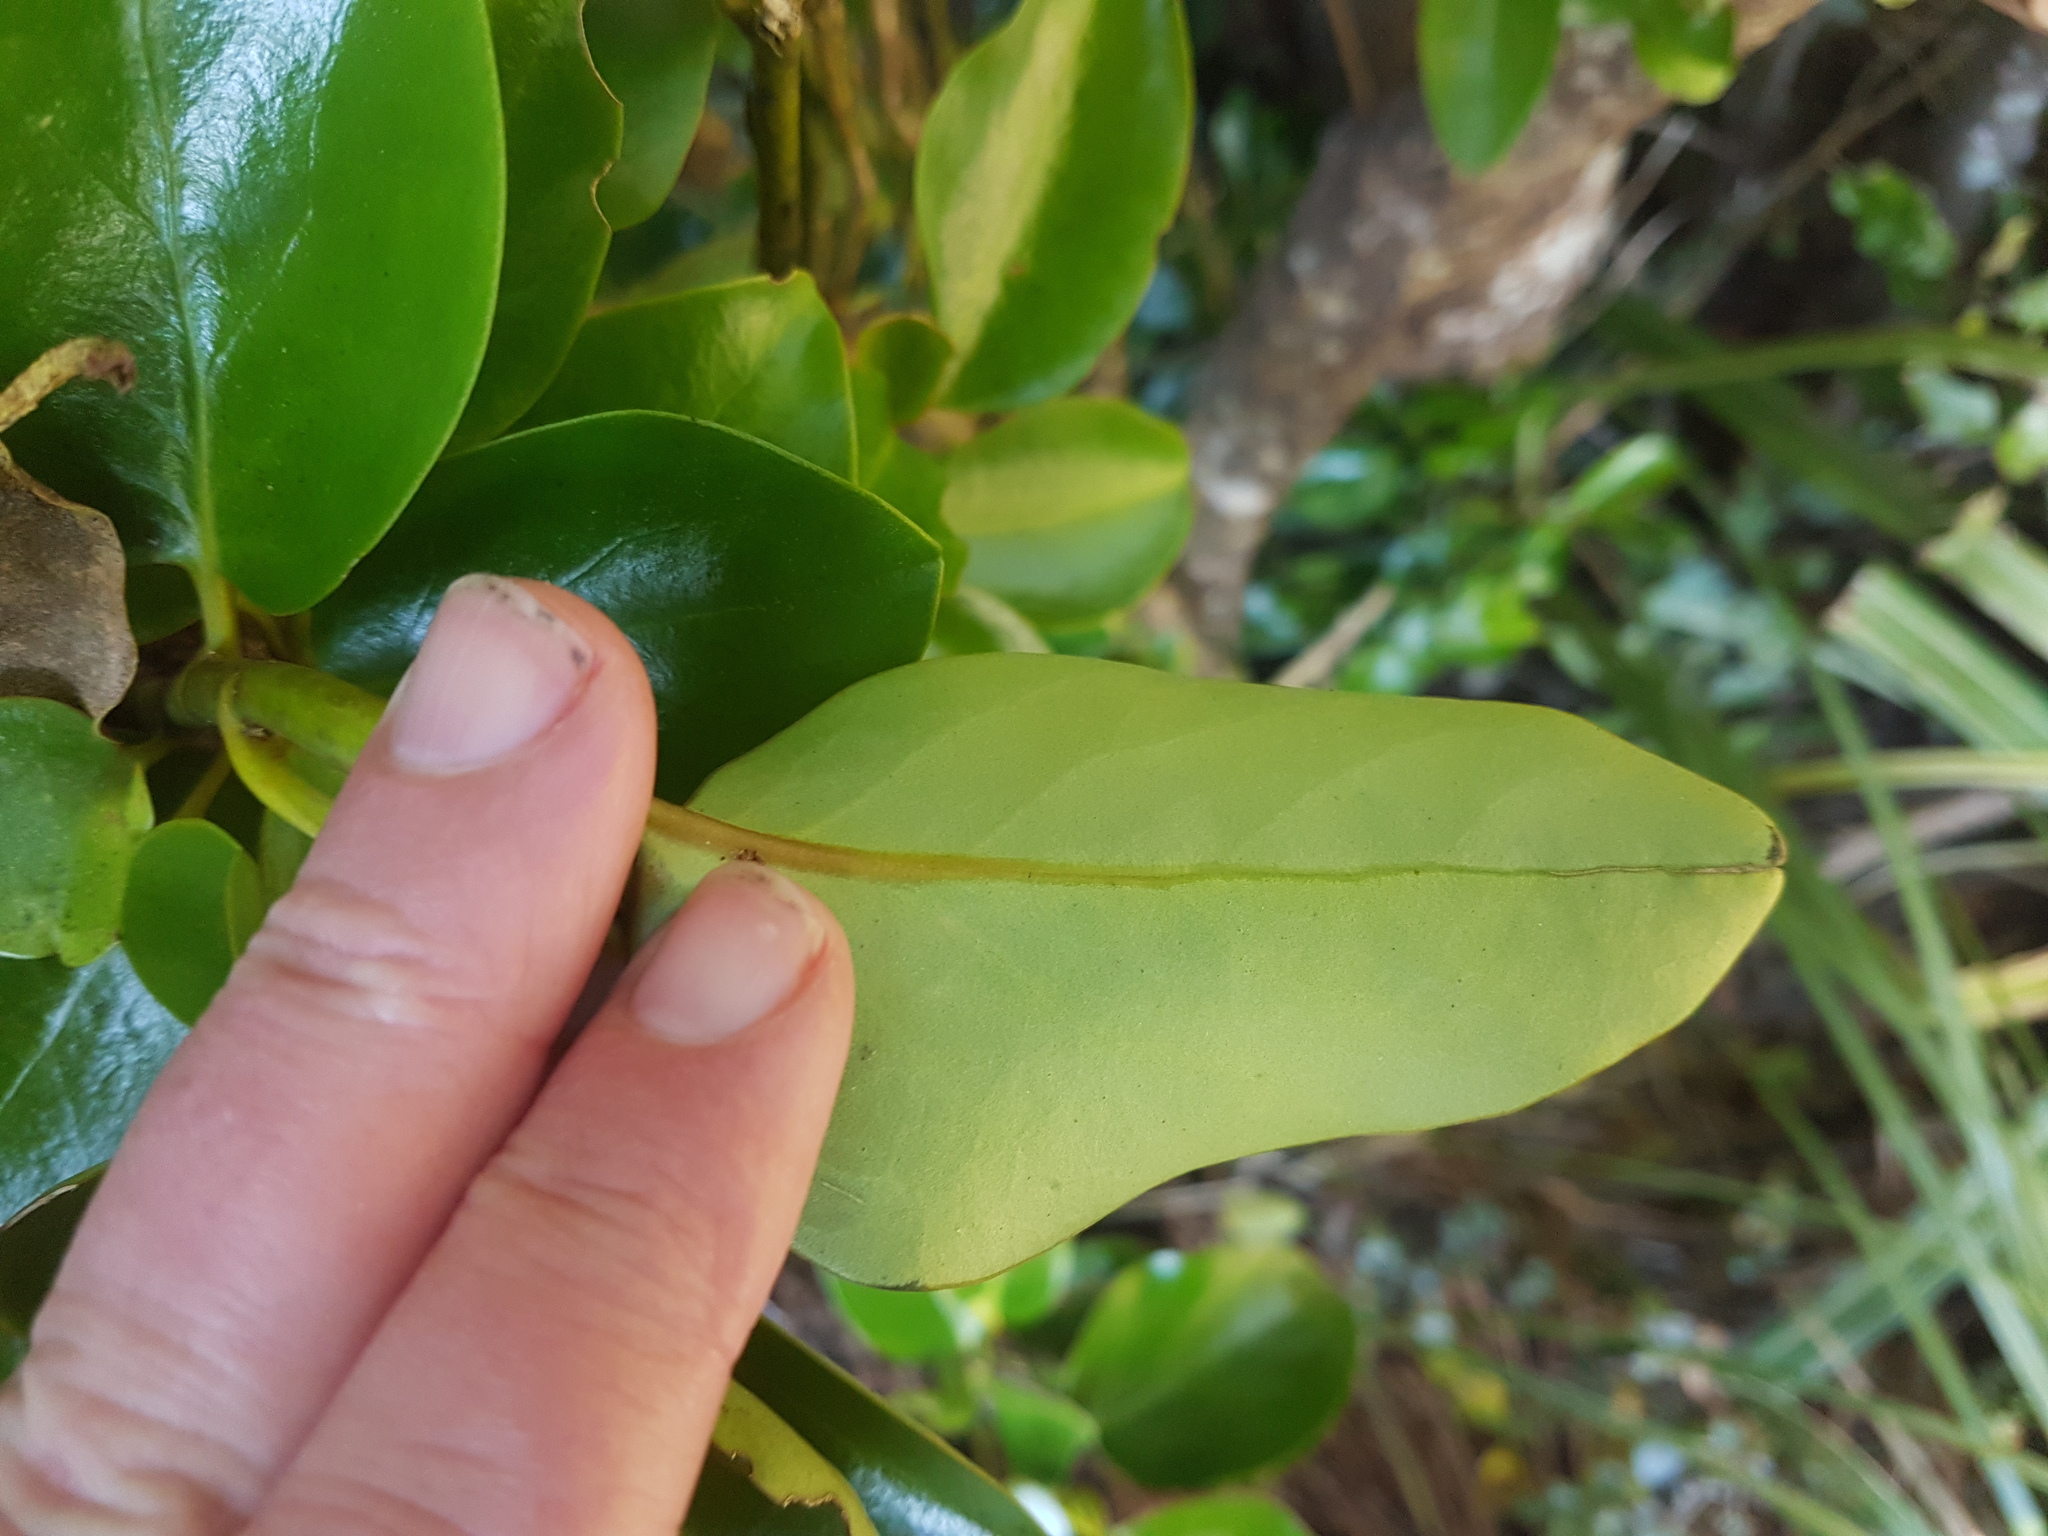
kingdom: Plantae
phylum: Tracheophyta
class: Magnoliopsida
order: Apiales
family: Griseliniaceae
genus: Griselinia
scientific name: Griselinia littoralis
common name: New zealand broadleaf
